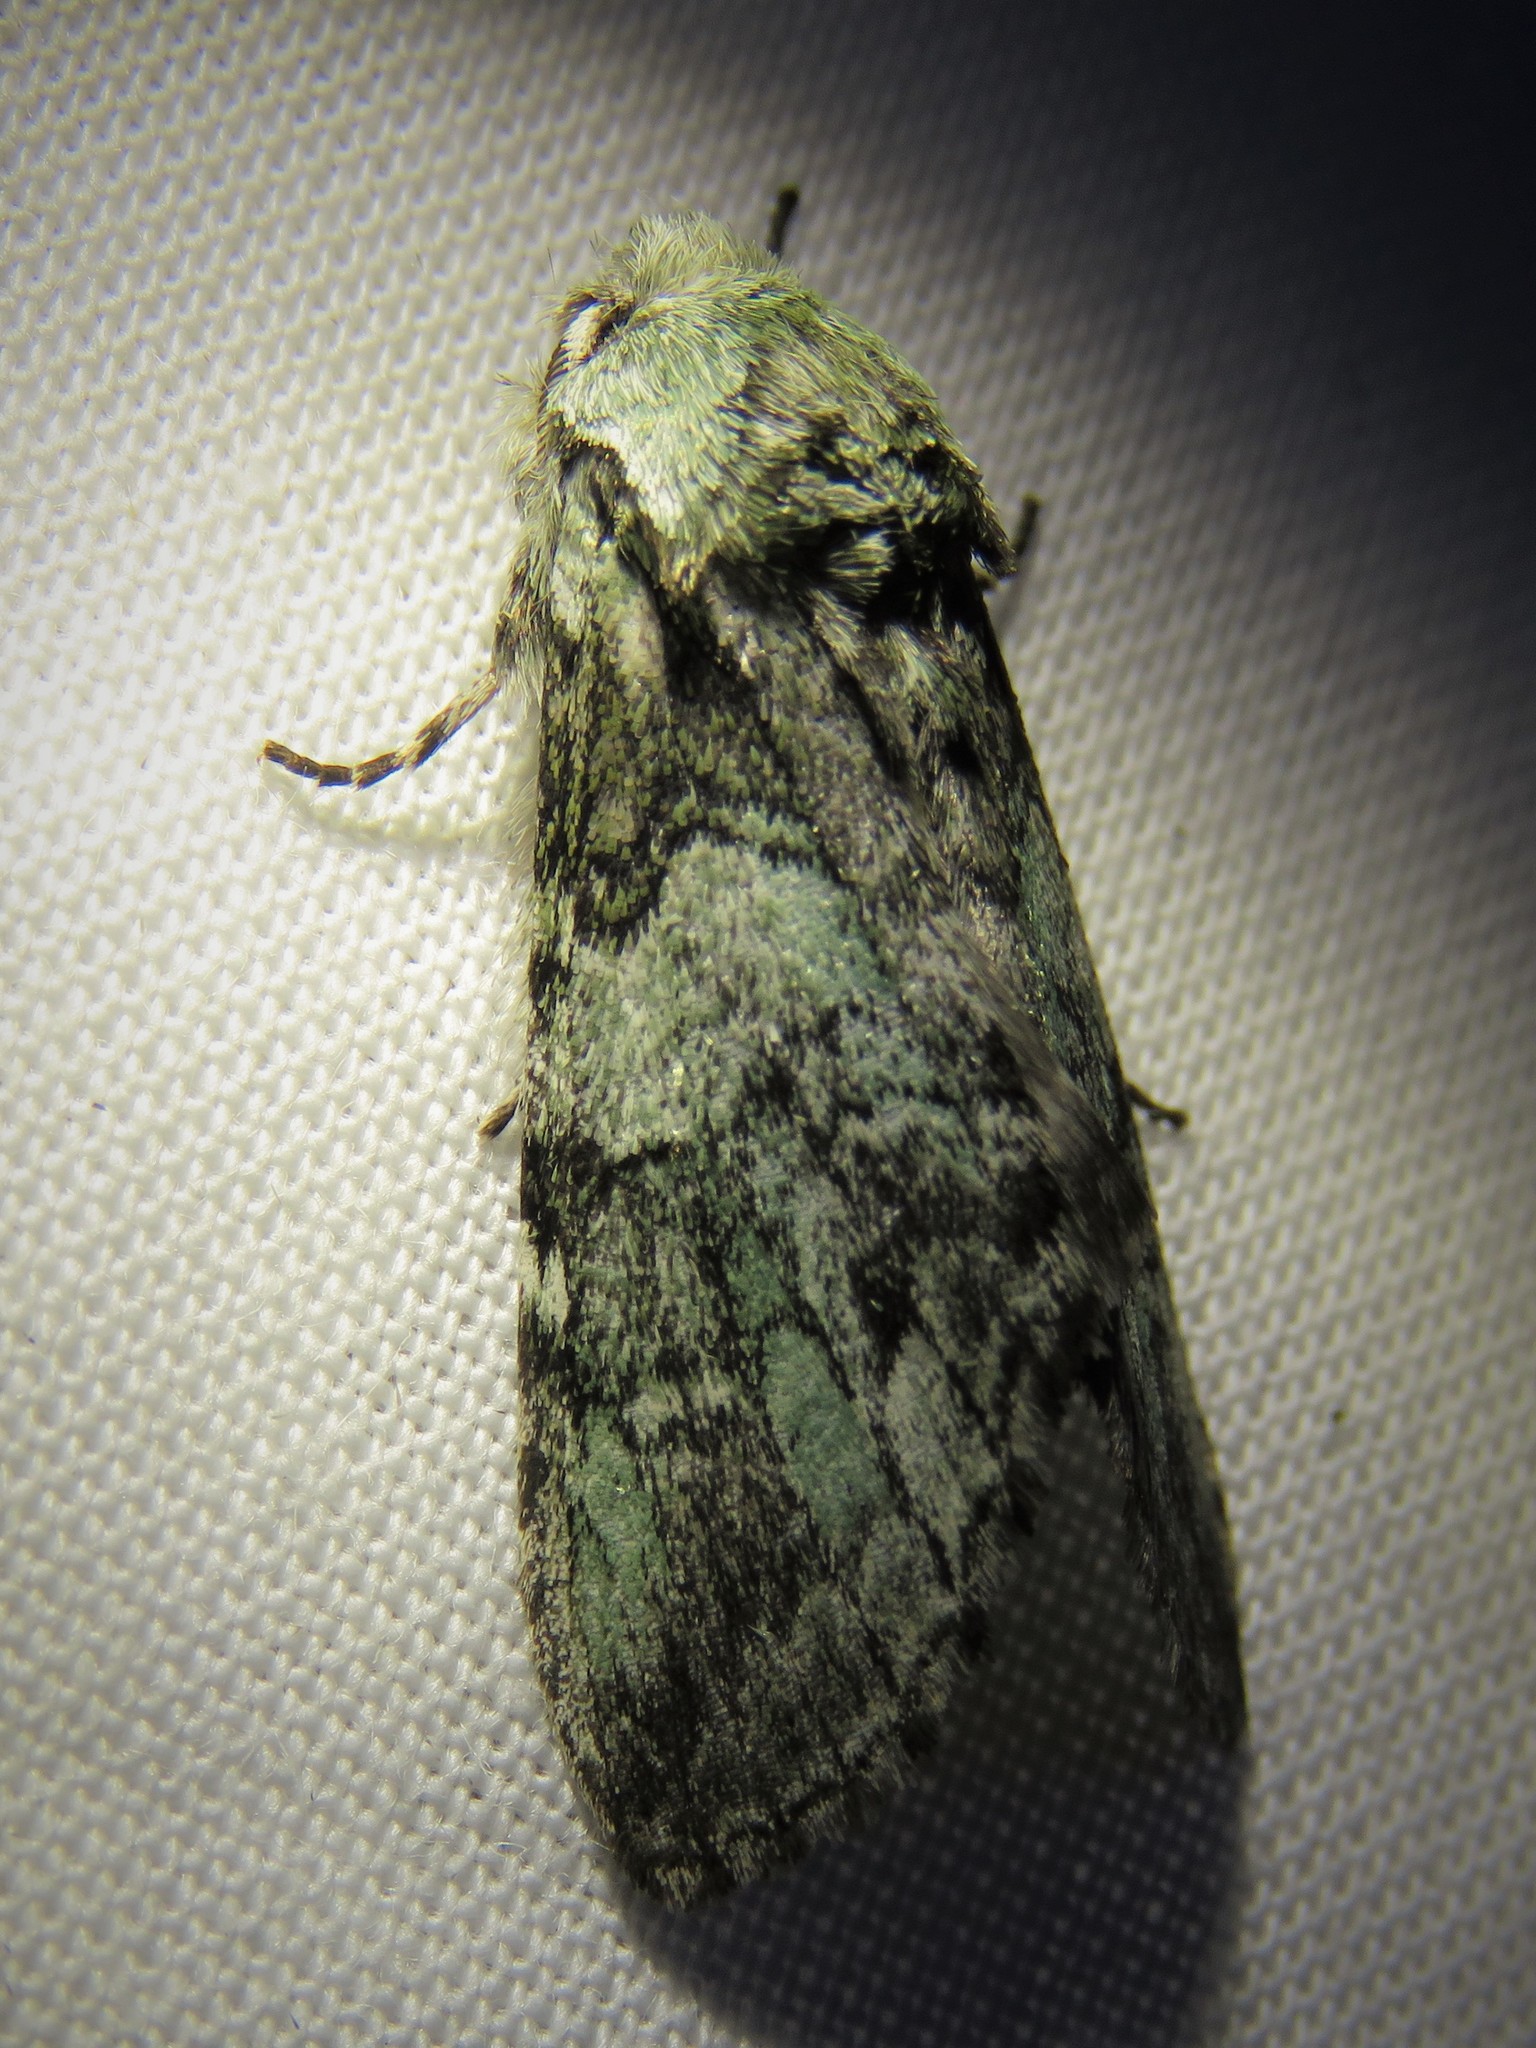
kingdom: Animalia
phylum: Arthropoda
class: Insecta
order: Lepidoptera
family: Notodontidae
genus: Macrurocampa
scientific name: Macrurocampa marthesia
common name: Mottled prominent
